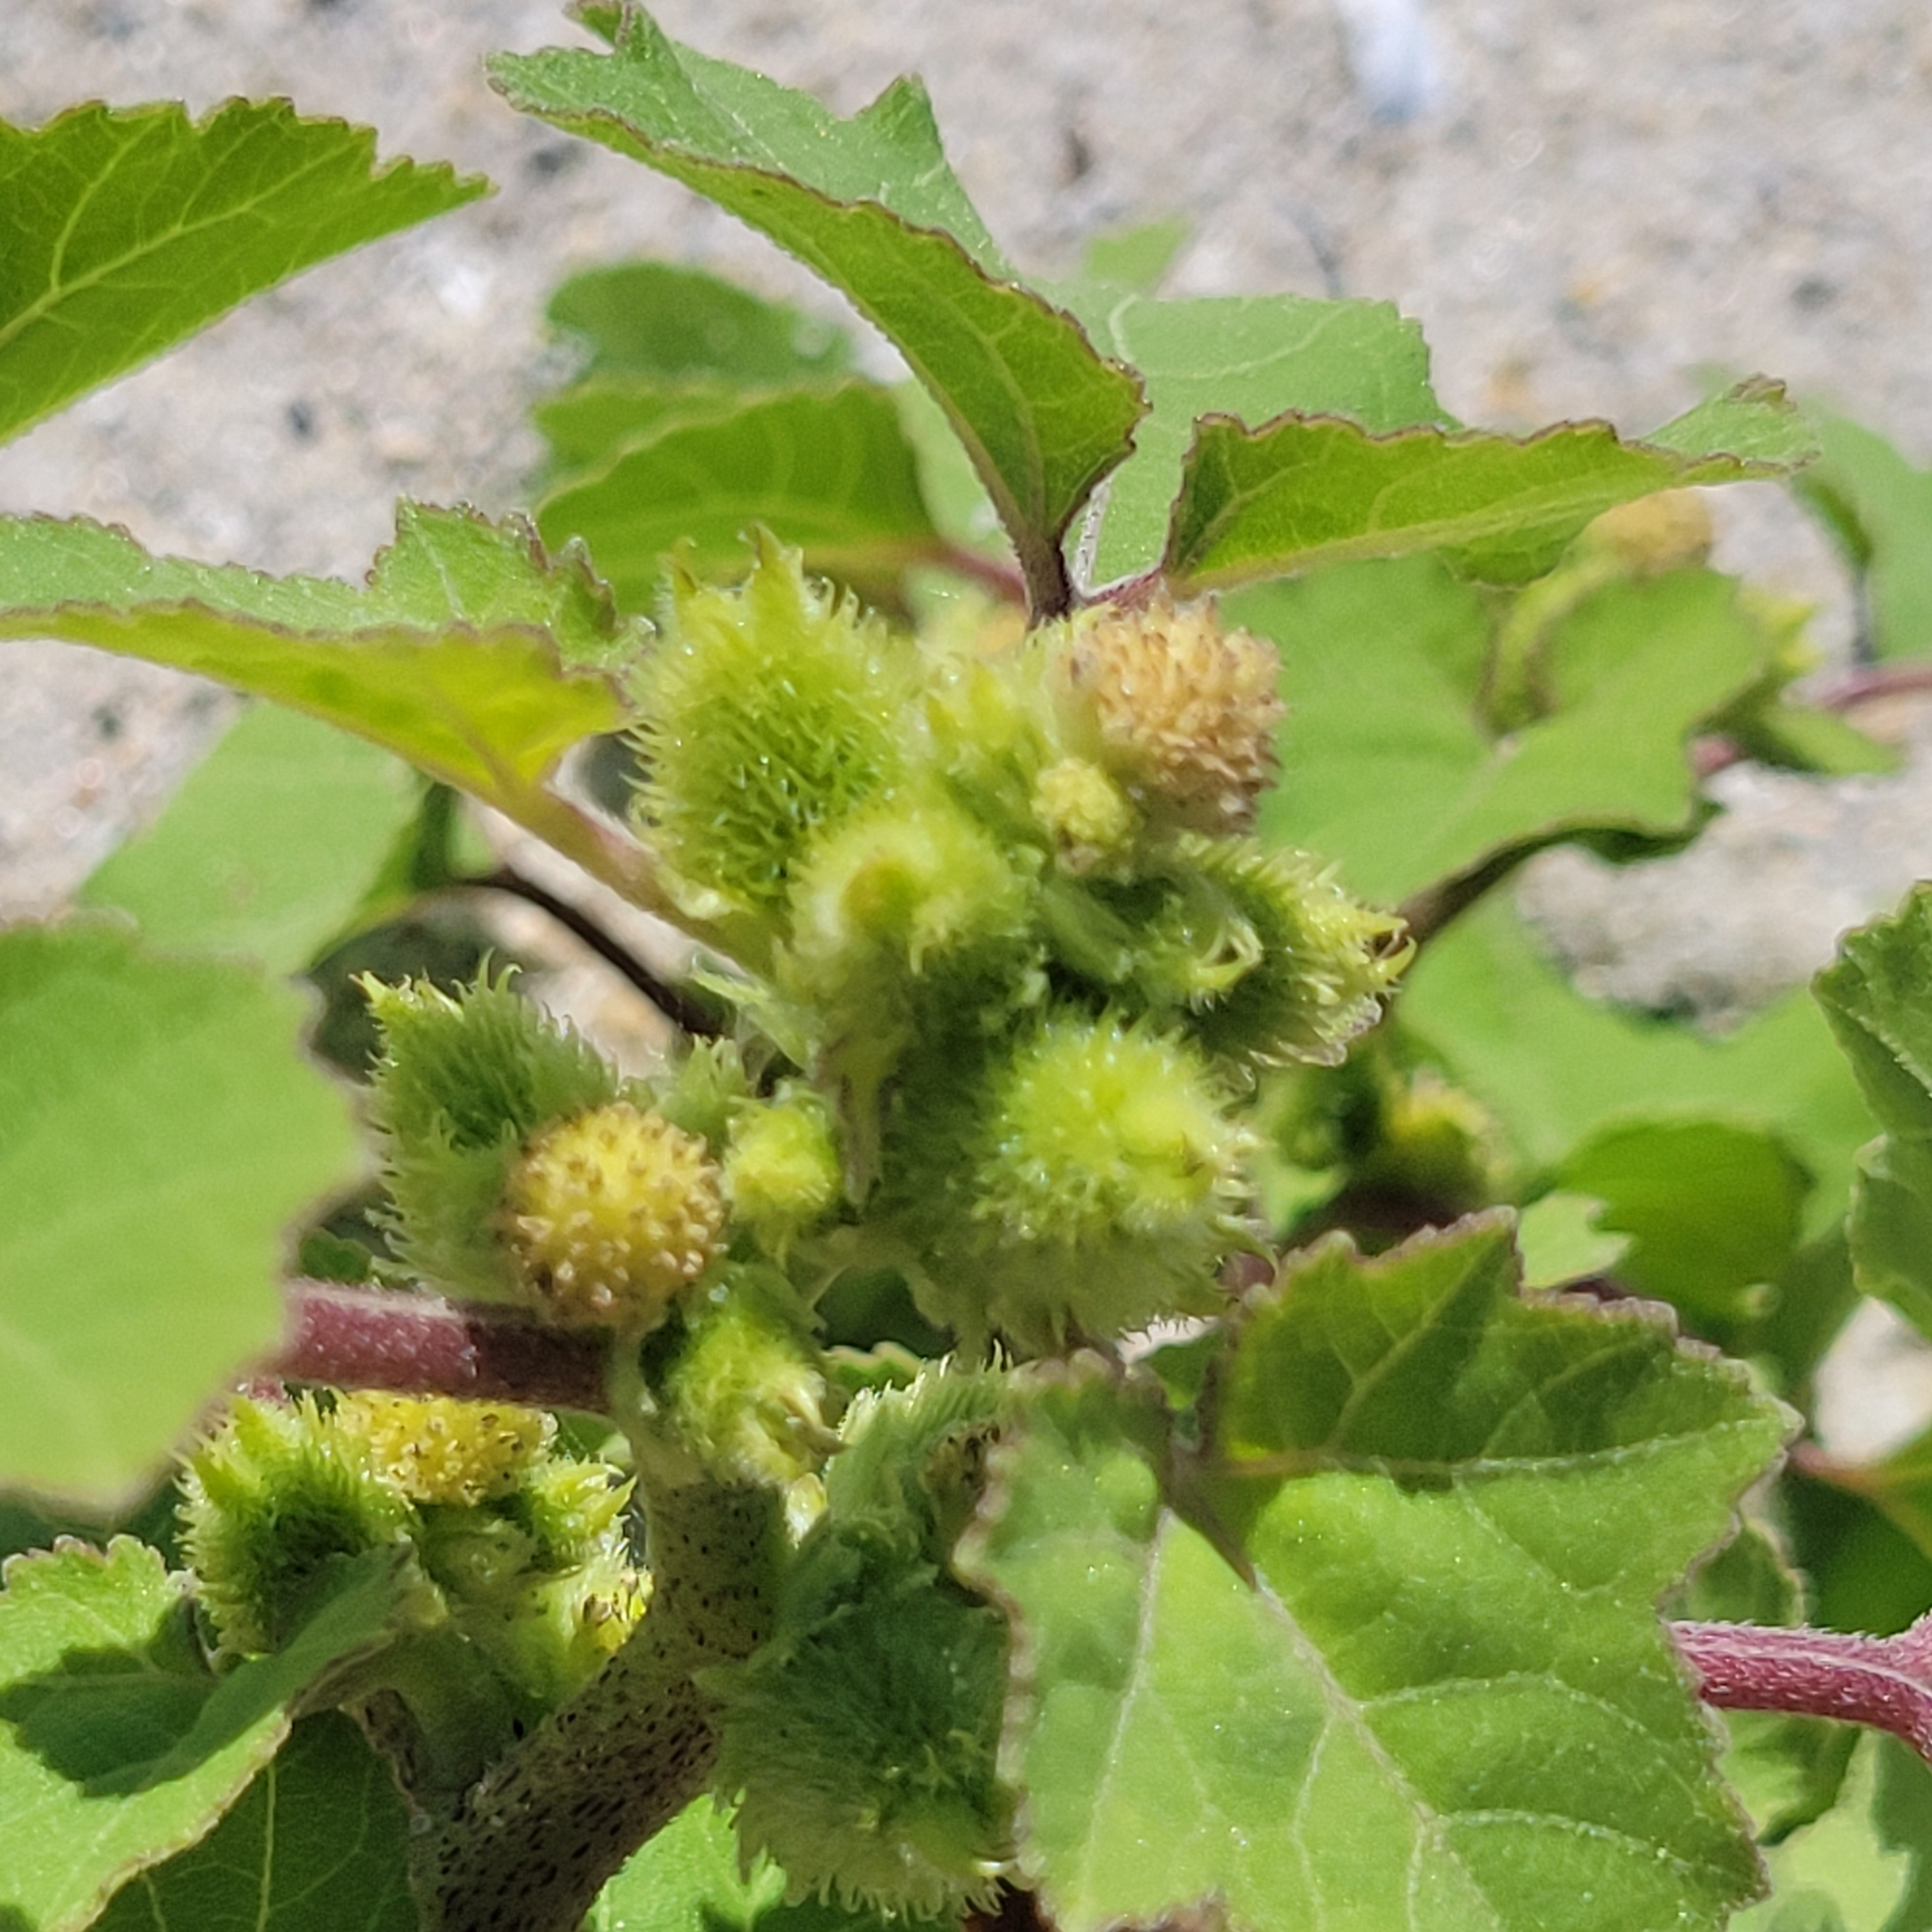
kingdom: Plantae
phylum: Tracheophyta
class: Magnoliopsida
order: Asterales
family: Asteraceae
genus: Xanthium
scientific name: Xanthium strumarium
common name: Rough cocklebur
